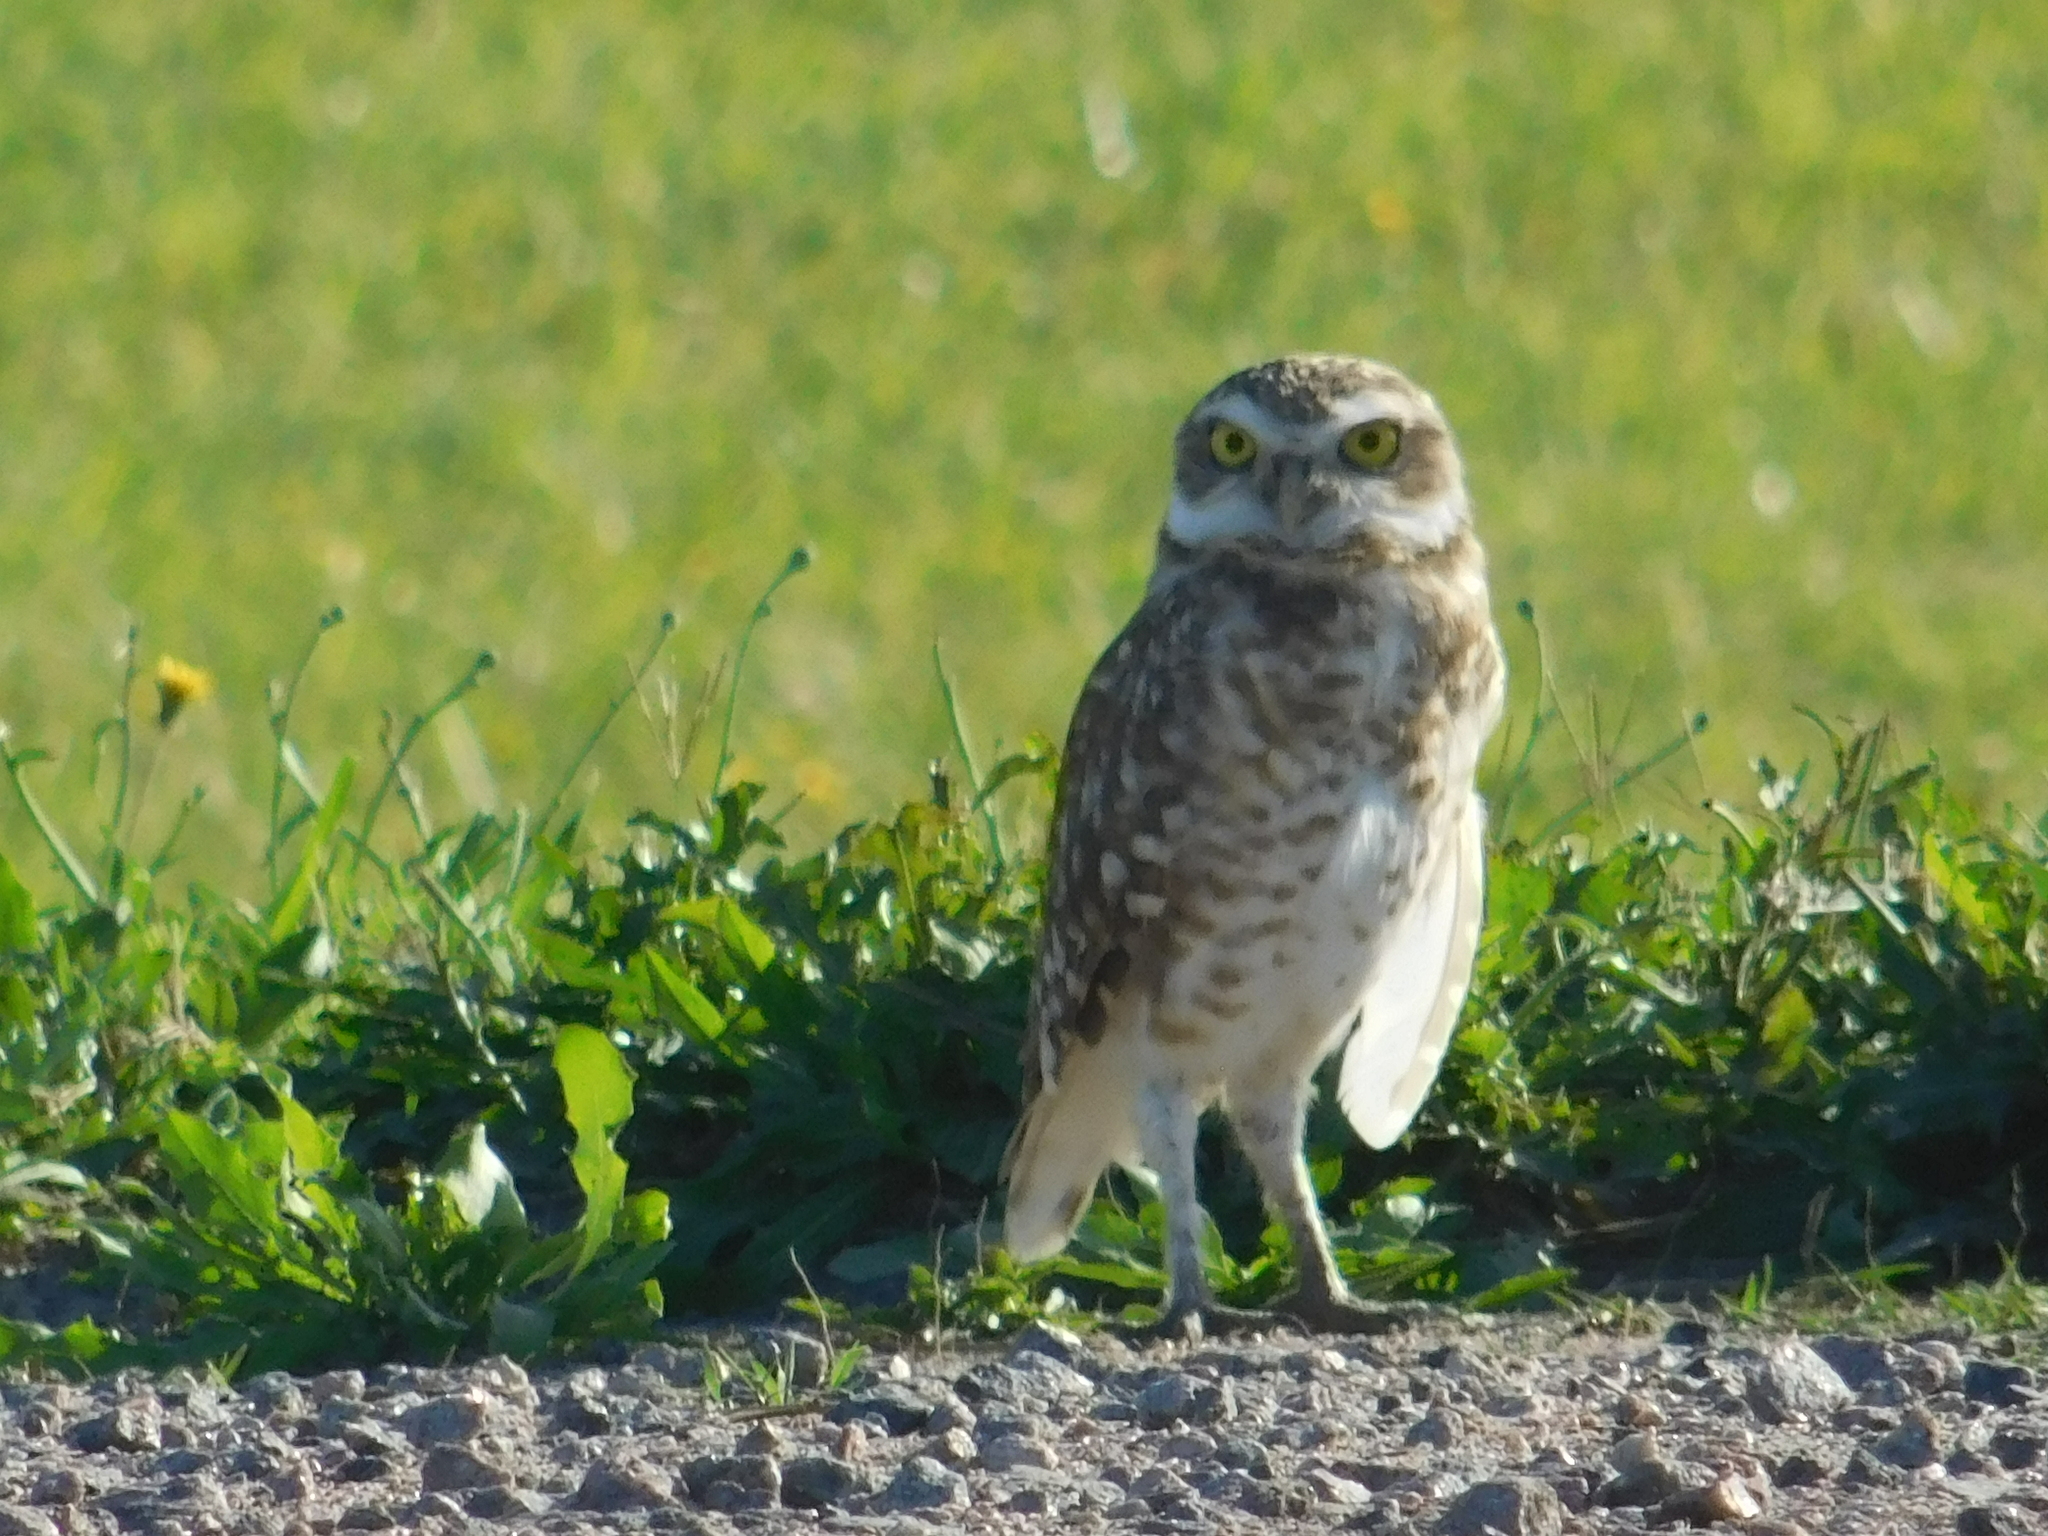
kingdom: Animalia
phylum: Chordata
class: Aves
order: Strigiformes
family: Strigidae
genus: Athene
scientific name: Athene cunicularia
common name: Burrowing owl
